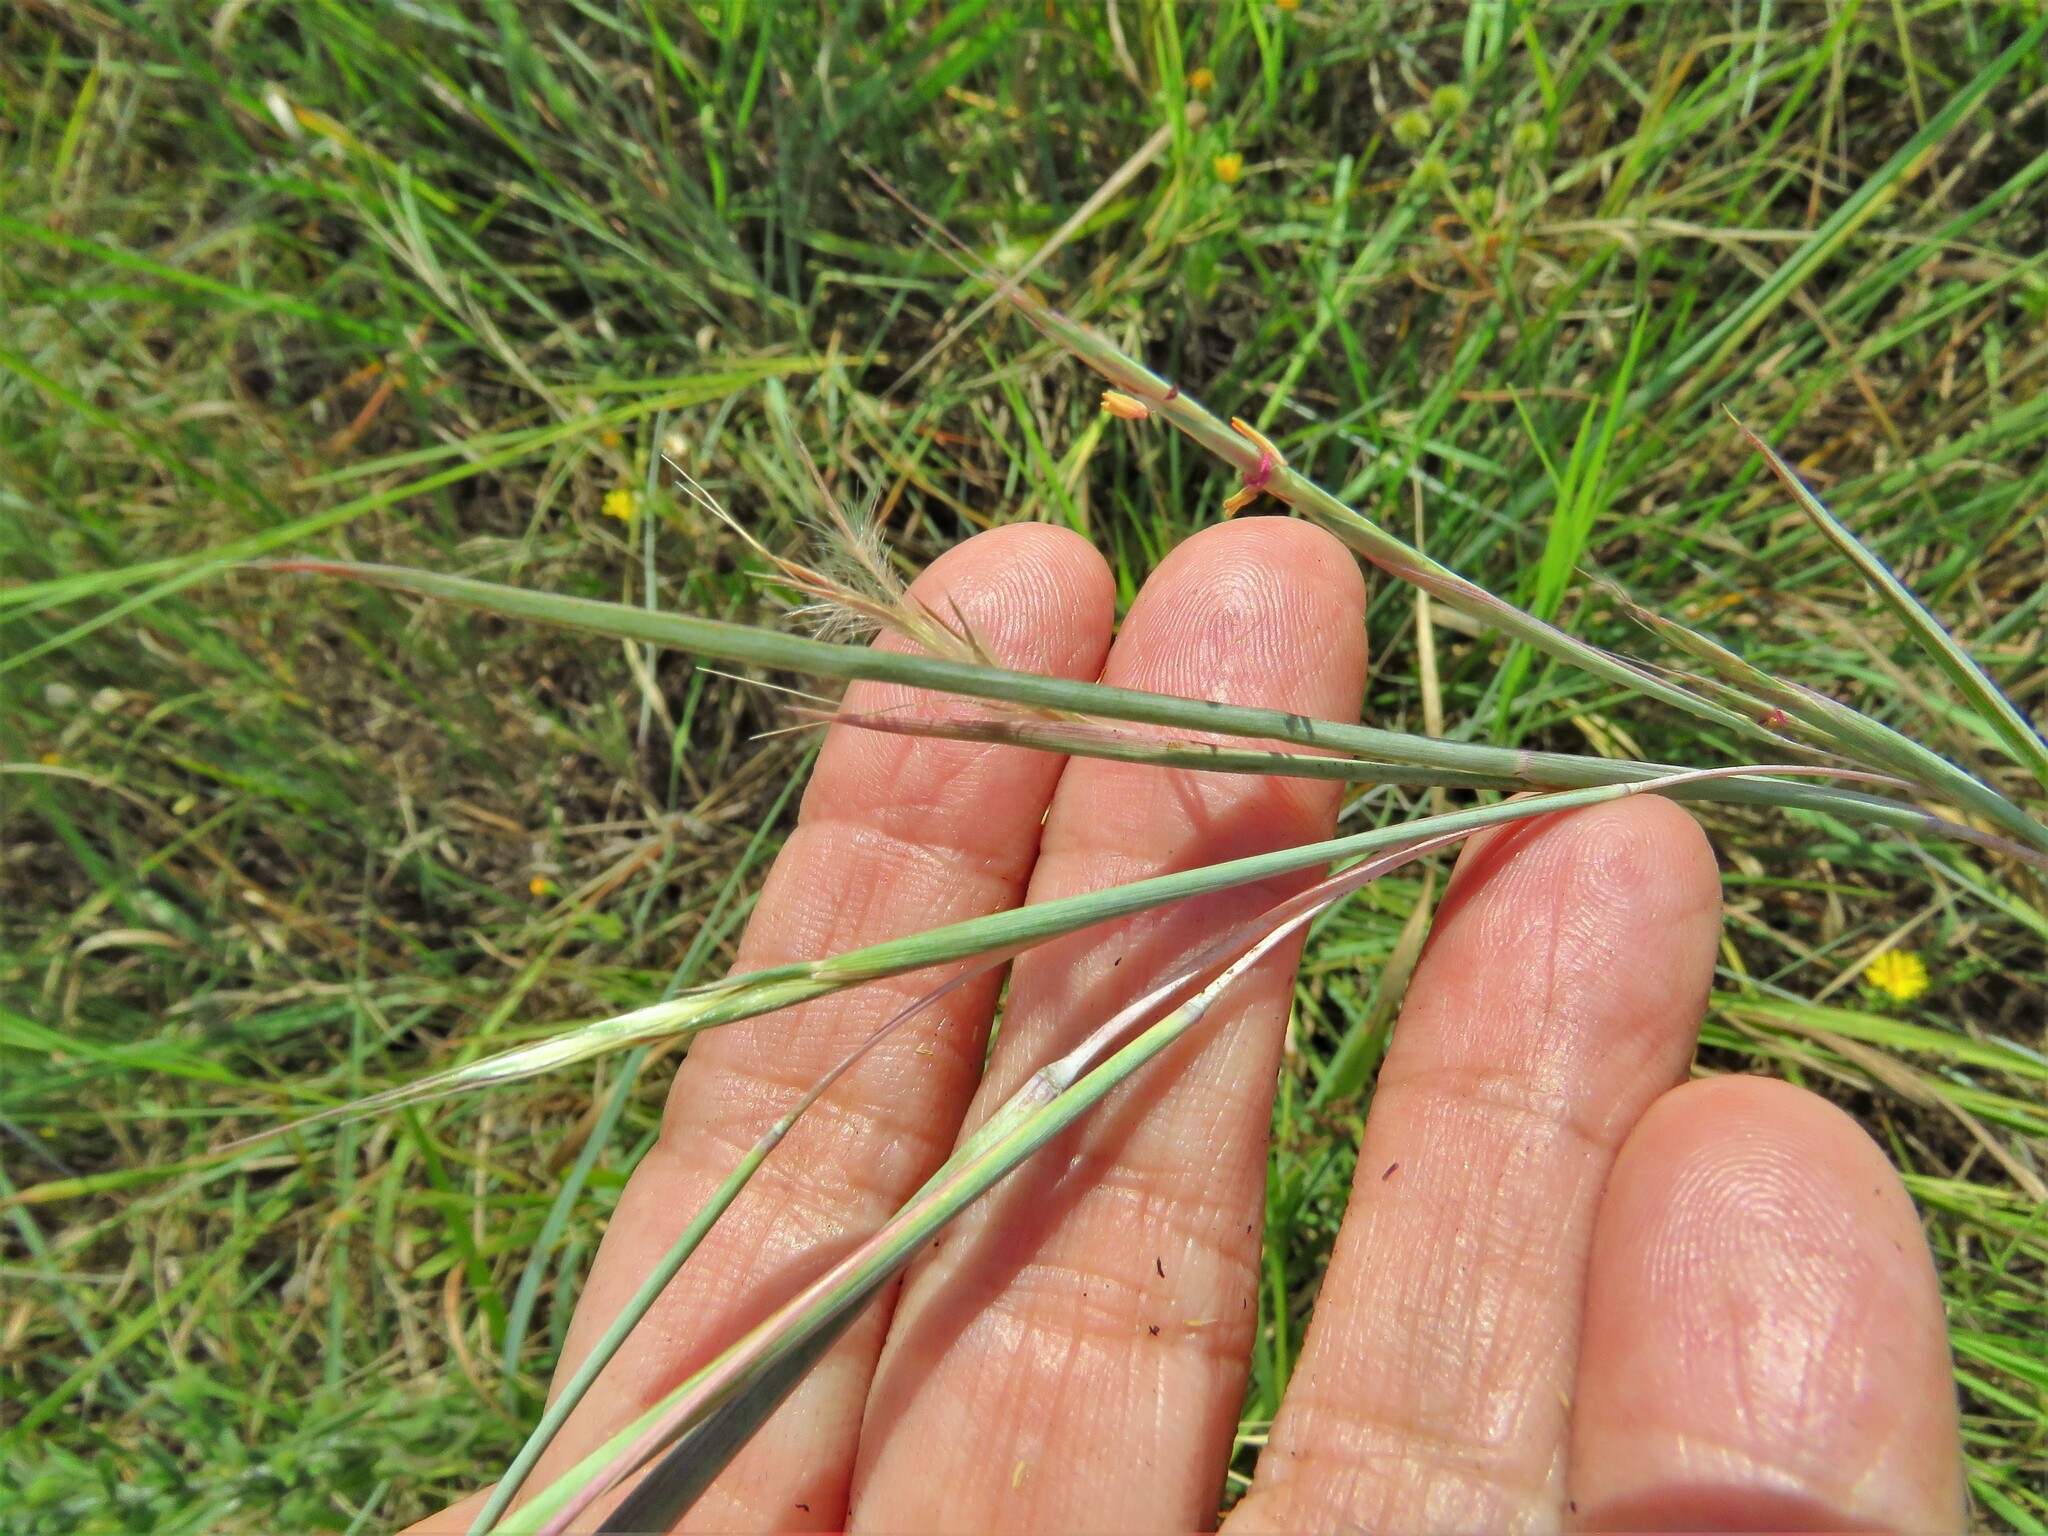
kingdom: Plantae
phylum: Tracheophyta
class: Liliopsida
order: Poales
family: Poaceae
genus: Schizachyrium
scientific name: Schizachyrium scoparium
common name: Little bluestem
